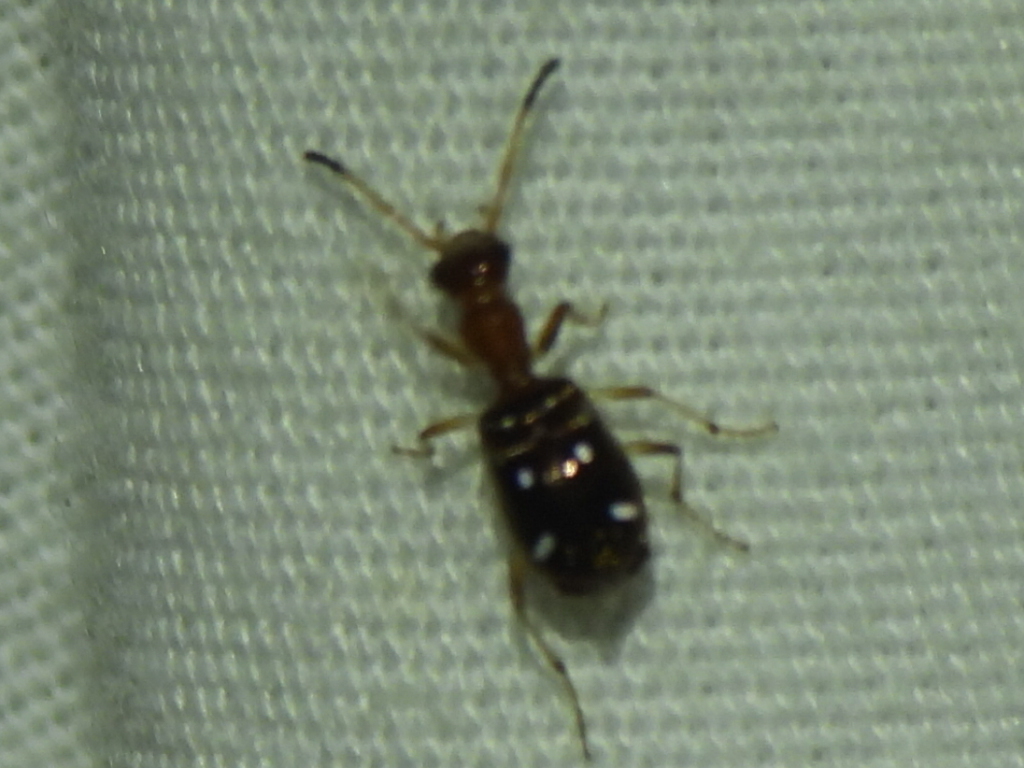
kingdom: Animalia
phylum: Arthropoda
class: Insecta
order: Coleoptera
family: Carabidae
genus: Ega
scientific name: Ega sallei
